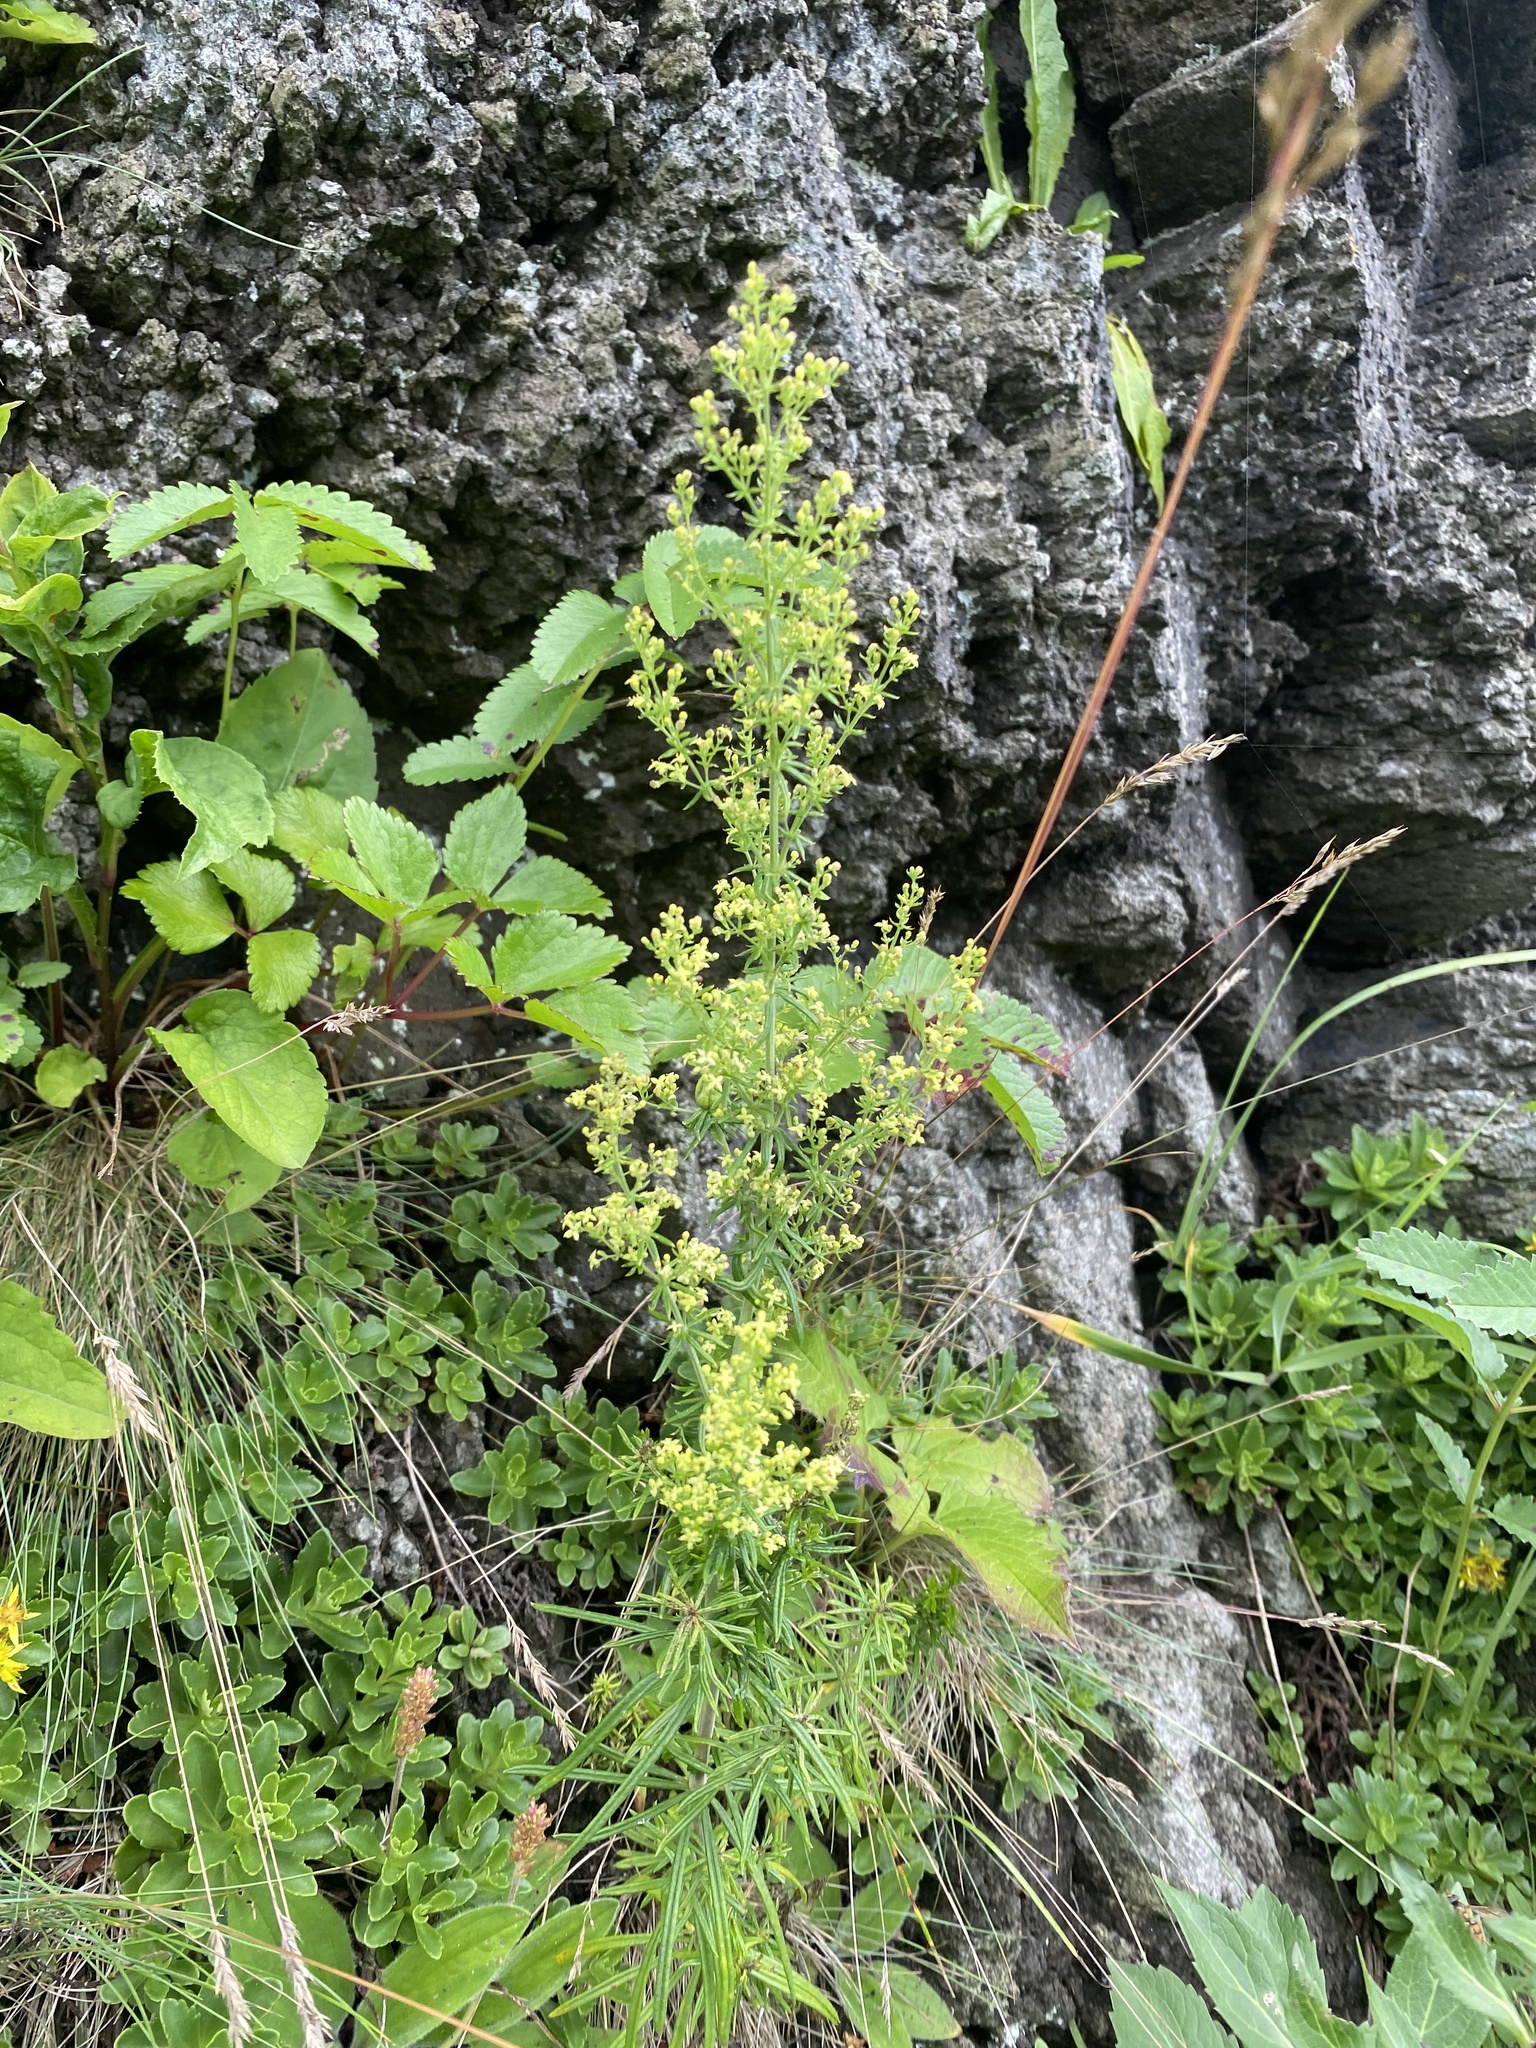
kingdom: Plantae
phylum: Tracheophyta
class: Magnoliopsida
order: Gentianales
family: Rubiaceae
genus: Galium
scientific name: Galium verum
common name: Lady's bedstraw
